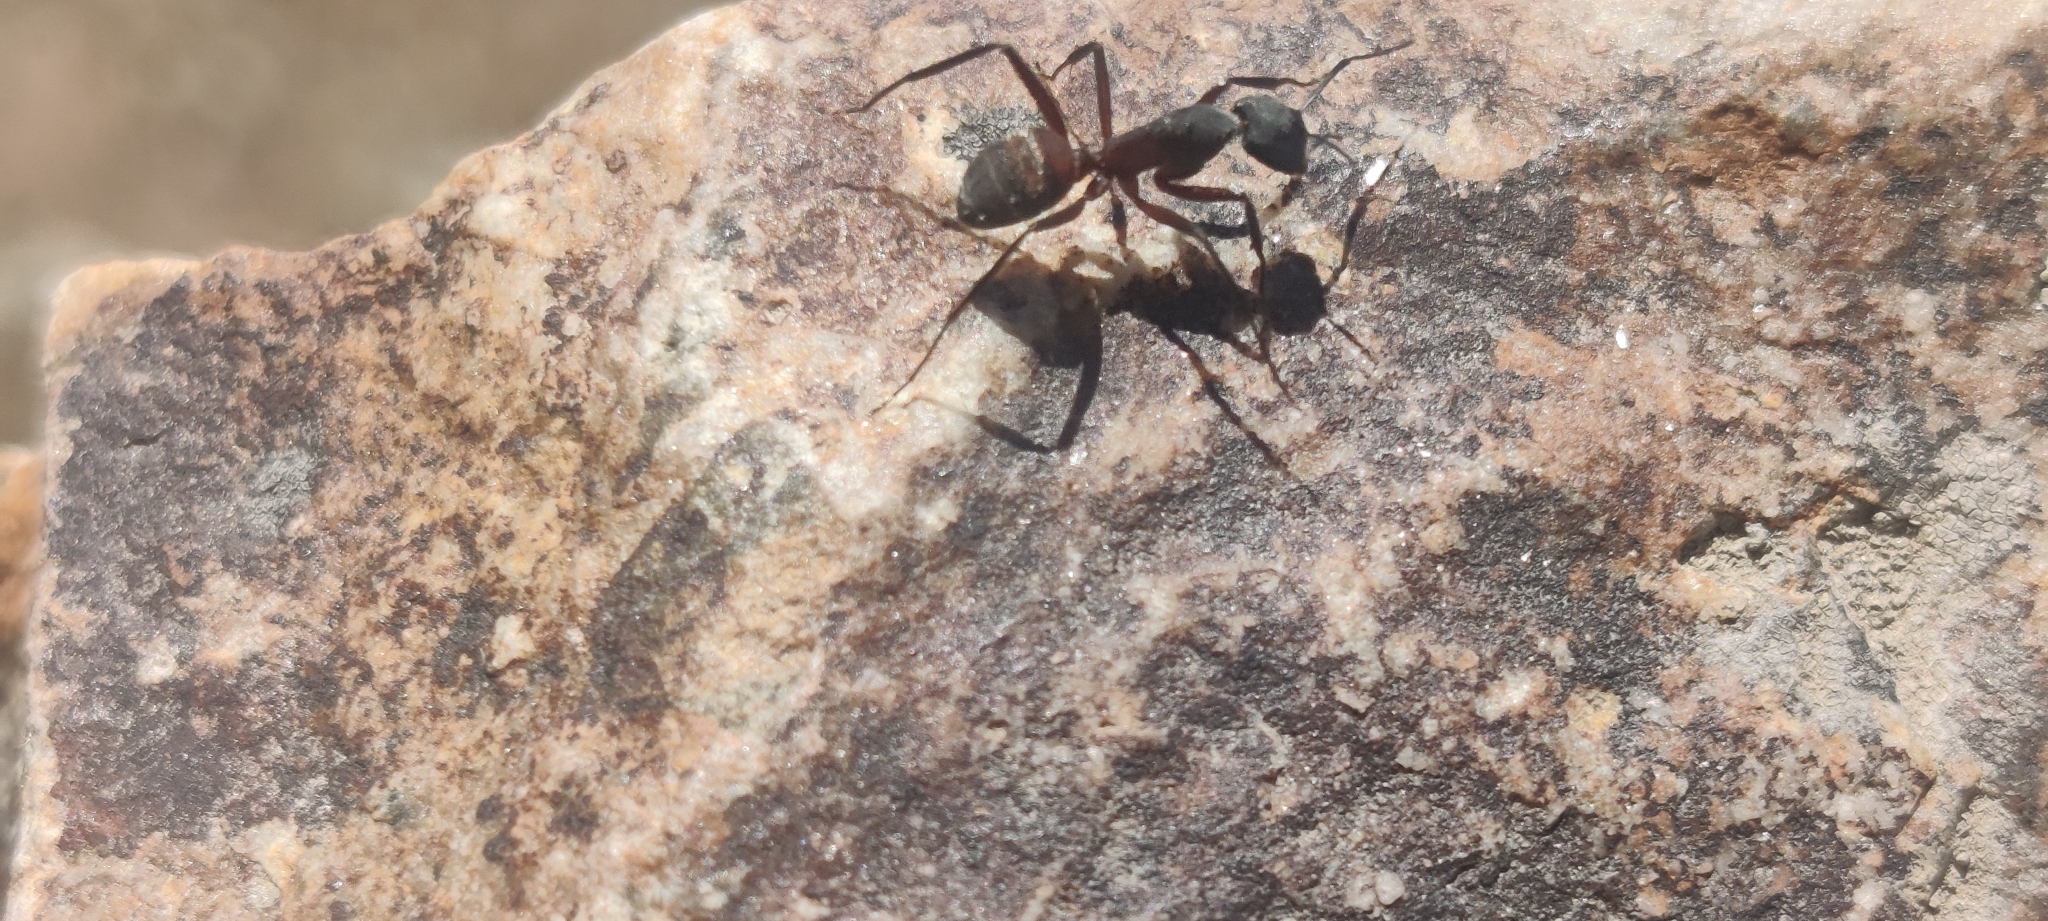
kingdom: Animalia
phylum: Arthropoda
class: Insecta
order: Hymenoptera
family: Formicidae
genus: Camponotus
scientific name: Camponotus cruentatus
